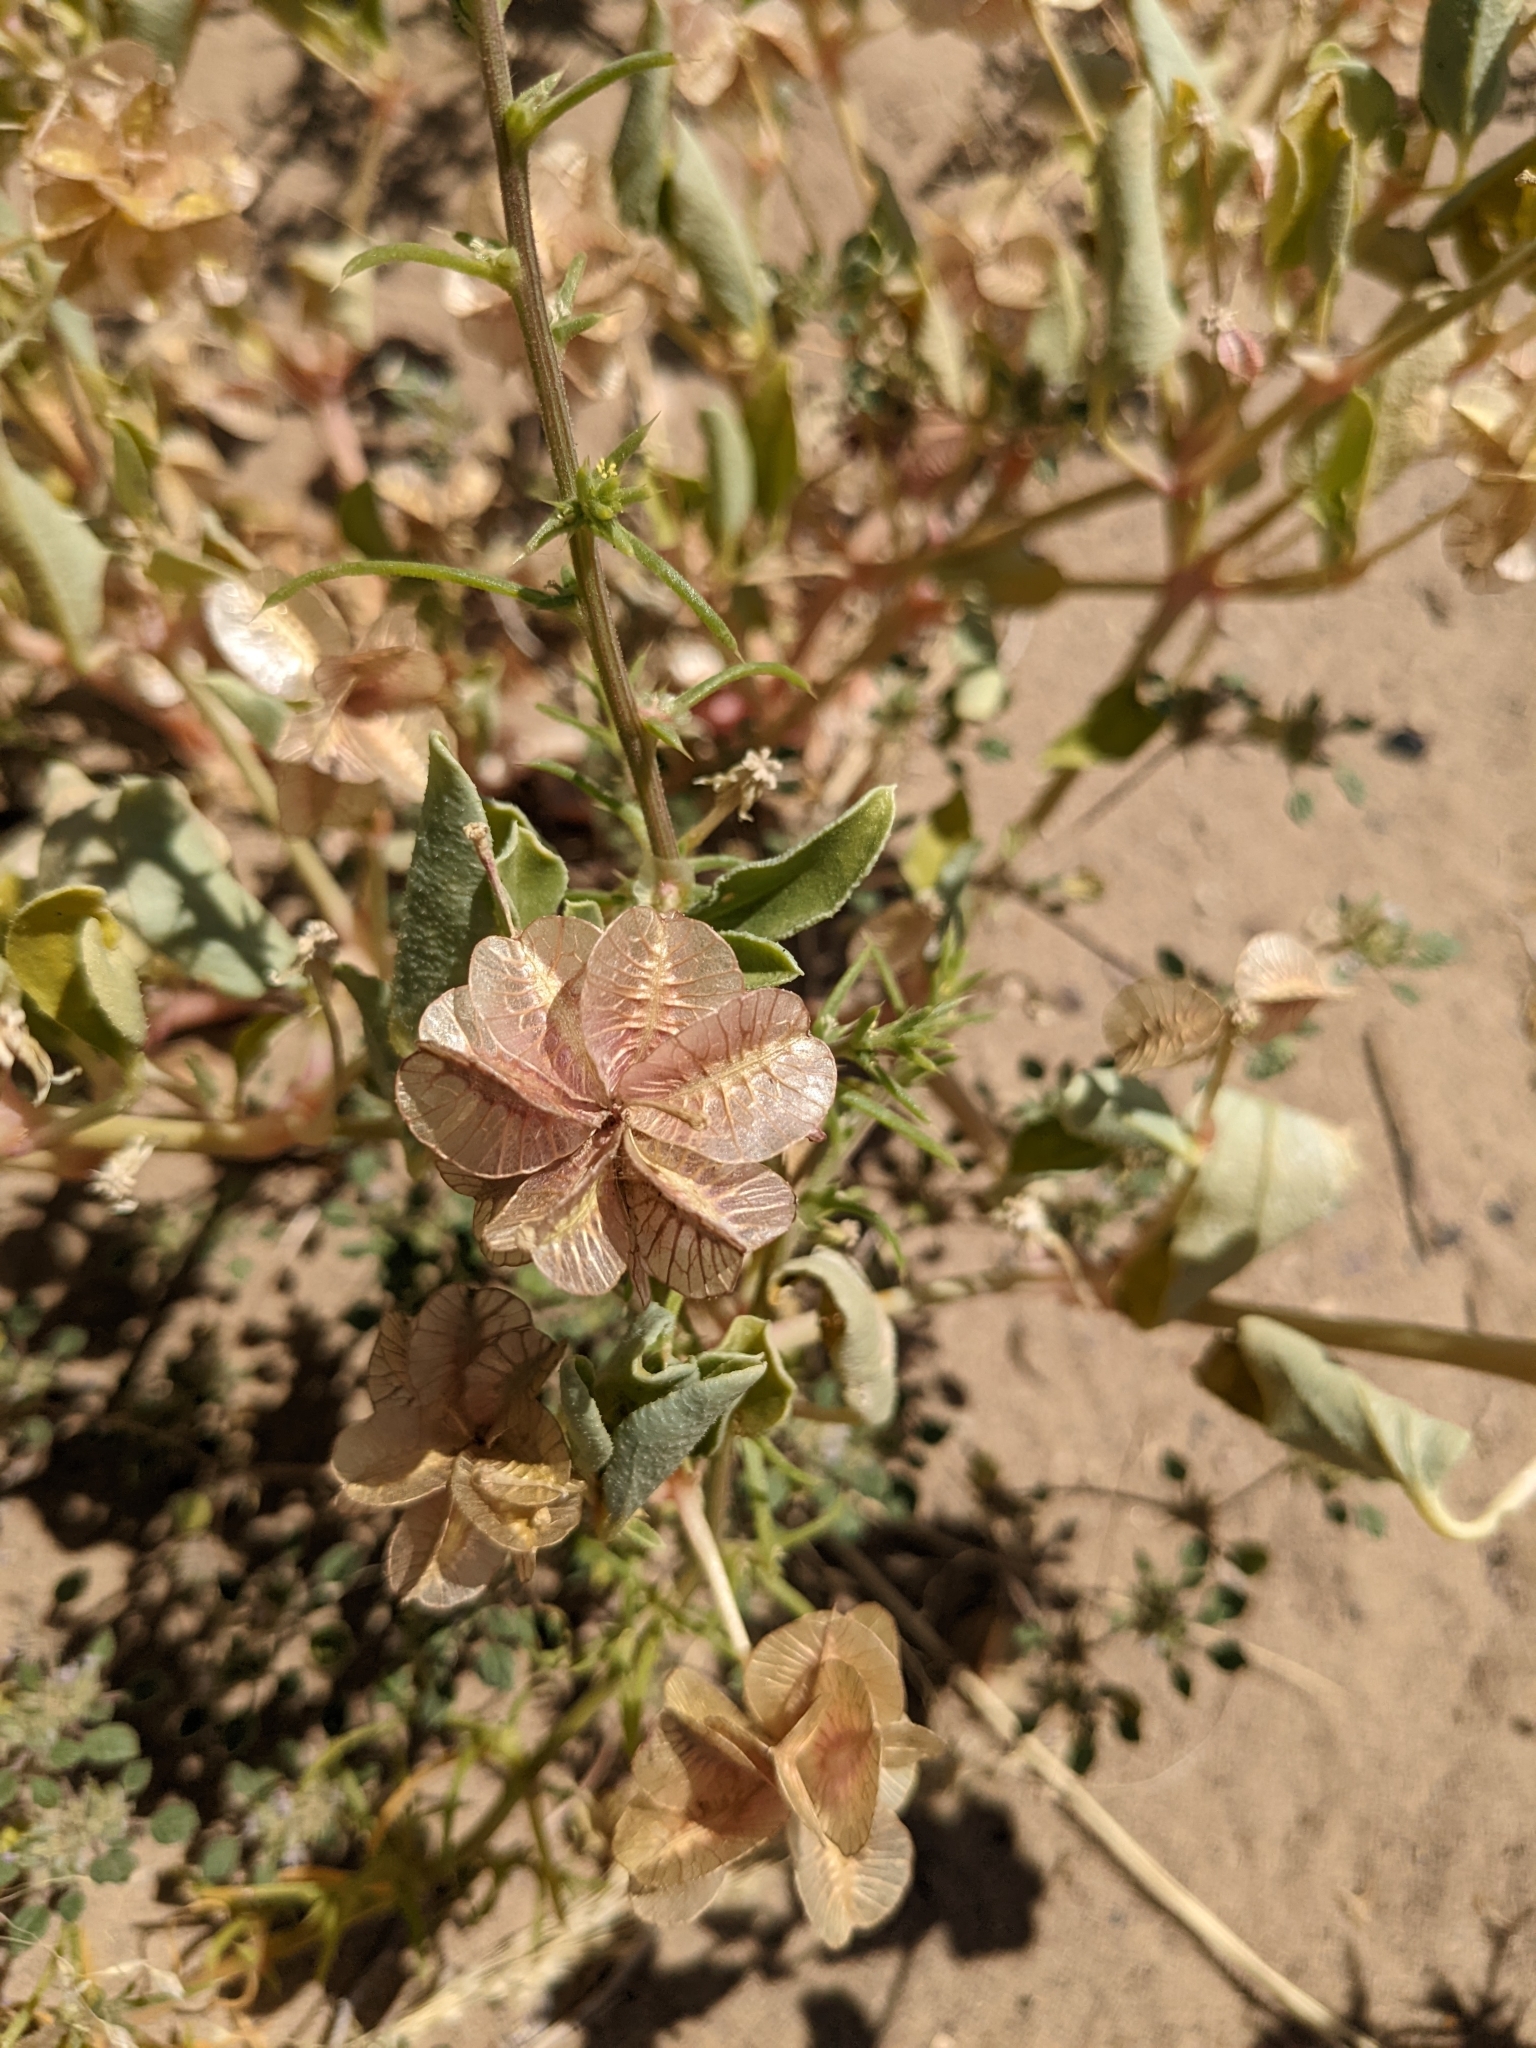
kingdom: Plantae
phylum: Tracheophyta
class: Magnoliopsida
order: Caryophyllales
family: Nyctaginaceae
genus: Tripterocalyx
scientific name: Tripterocalyx carneus
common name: Winged sandpuffs
